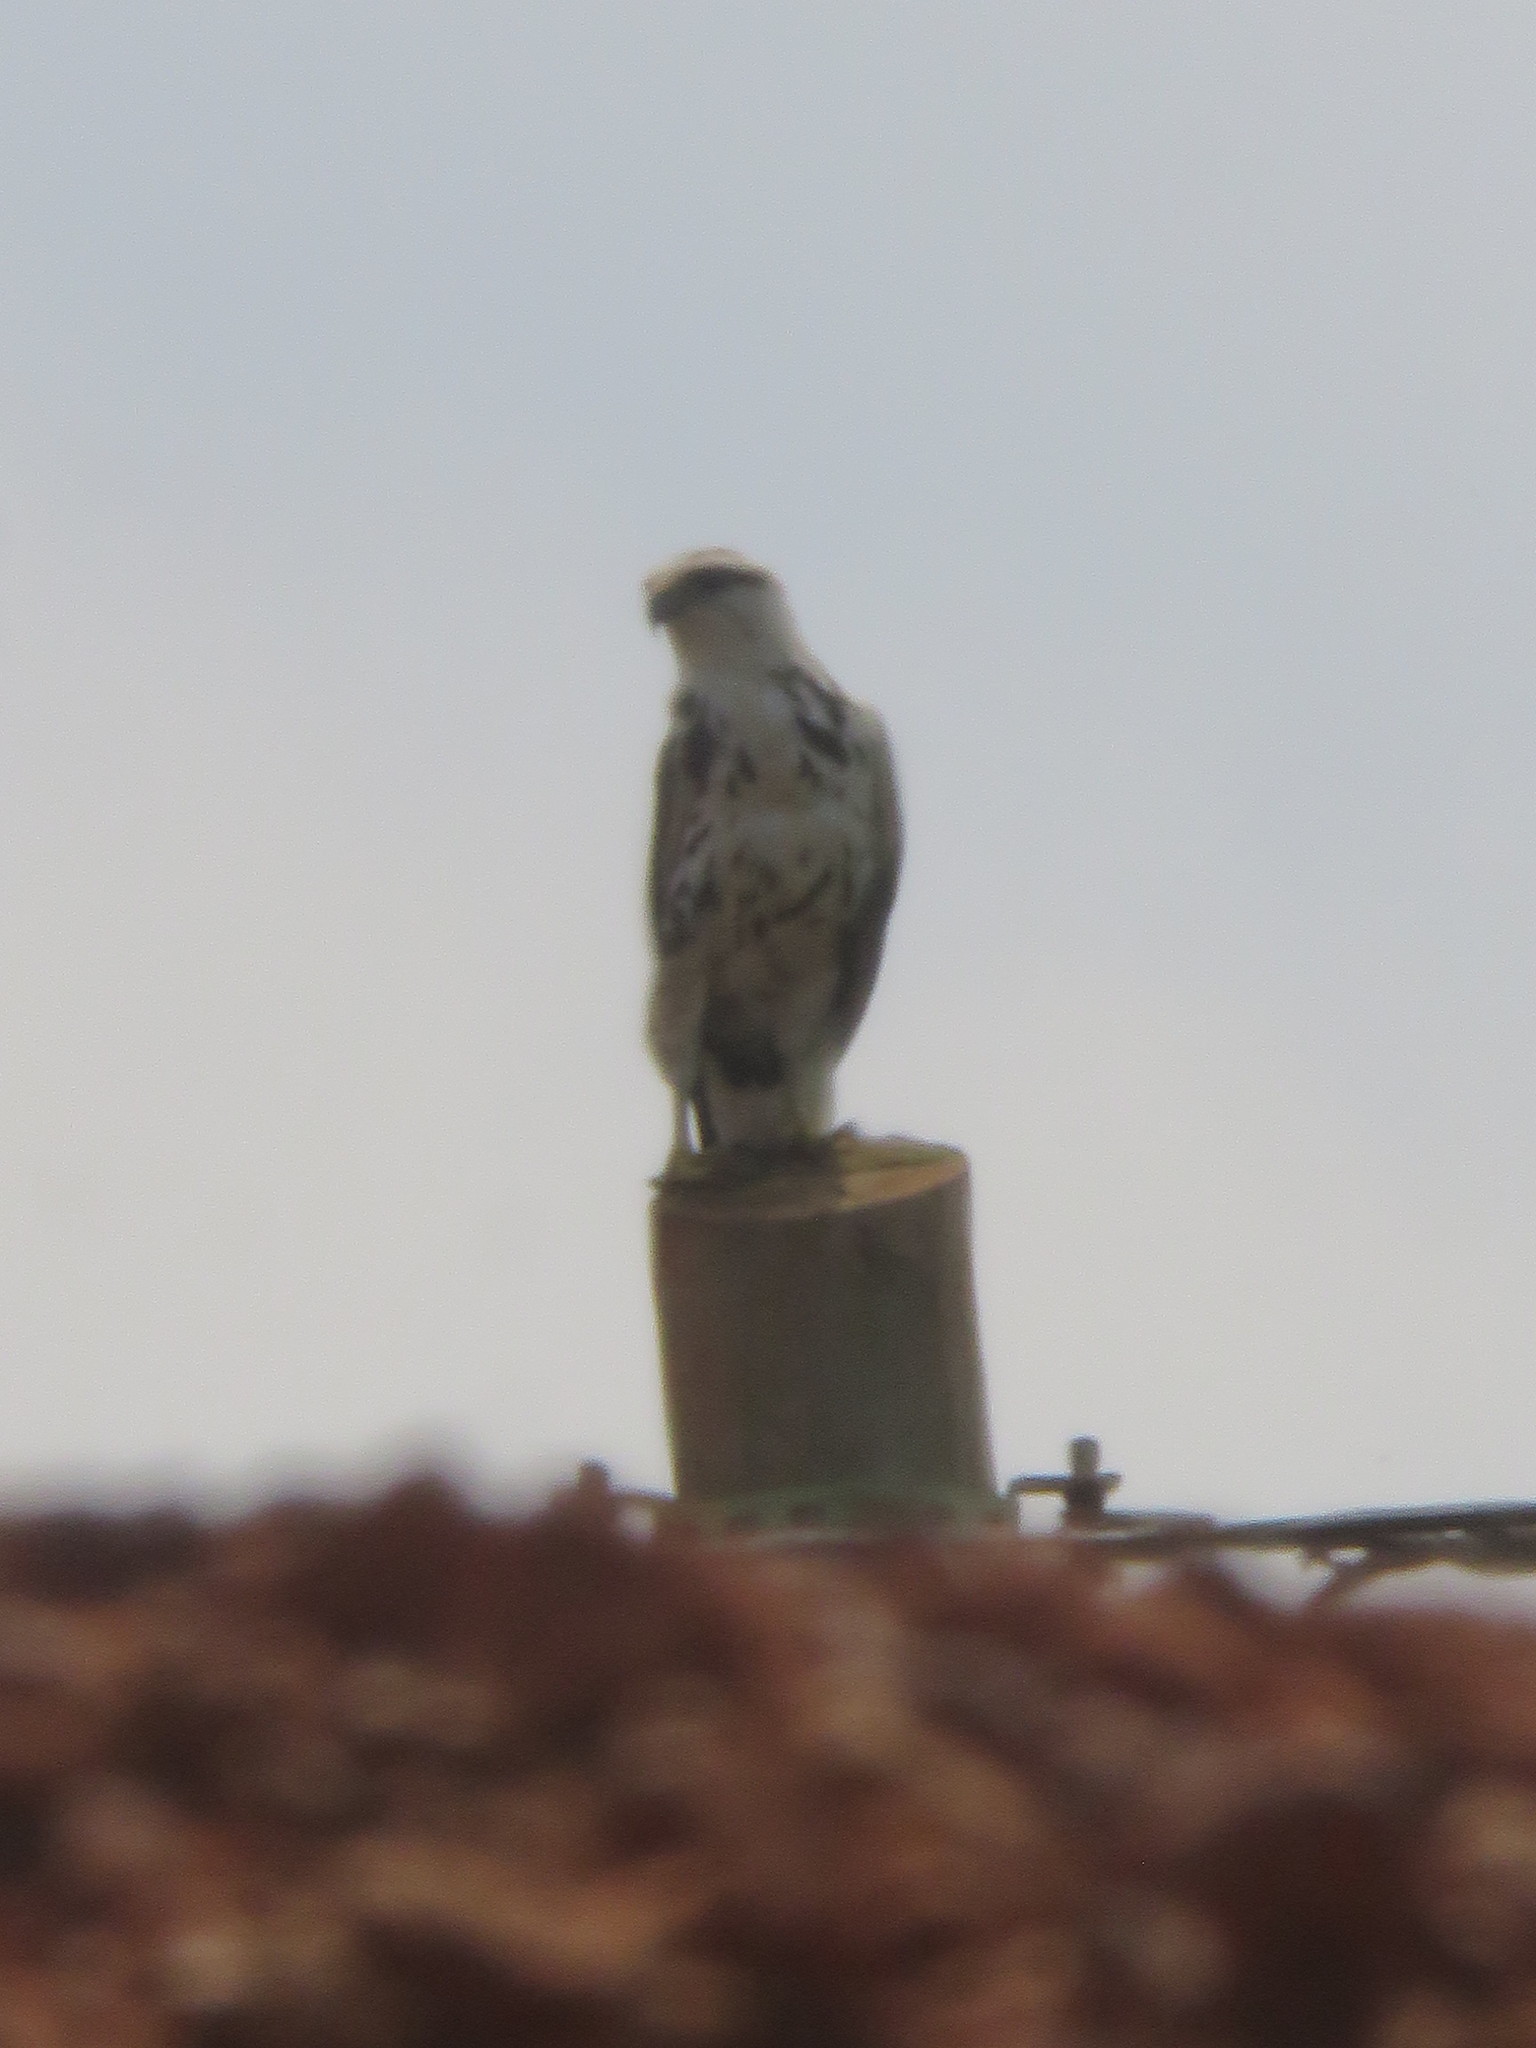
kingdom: Animalia
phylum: Chordata
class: Aves
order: Accipitriformes
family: Accipitridae
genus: Buteo
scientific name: Buteo nitidus
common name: Grey-lined hawk
